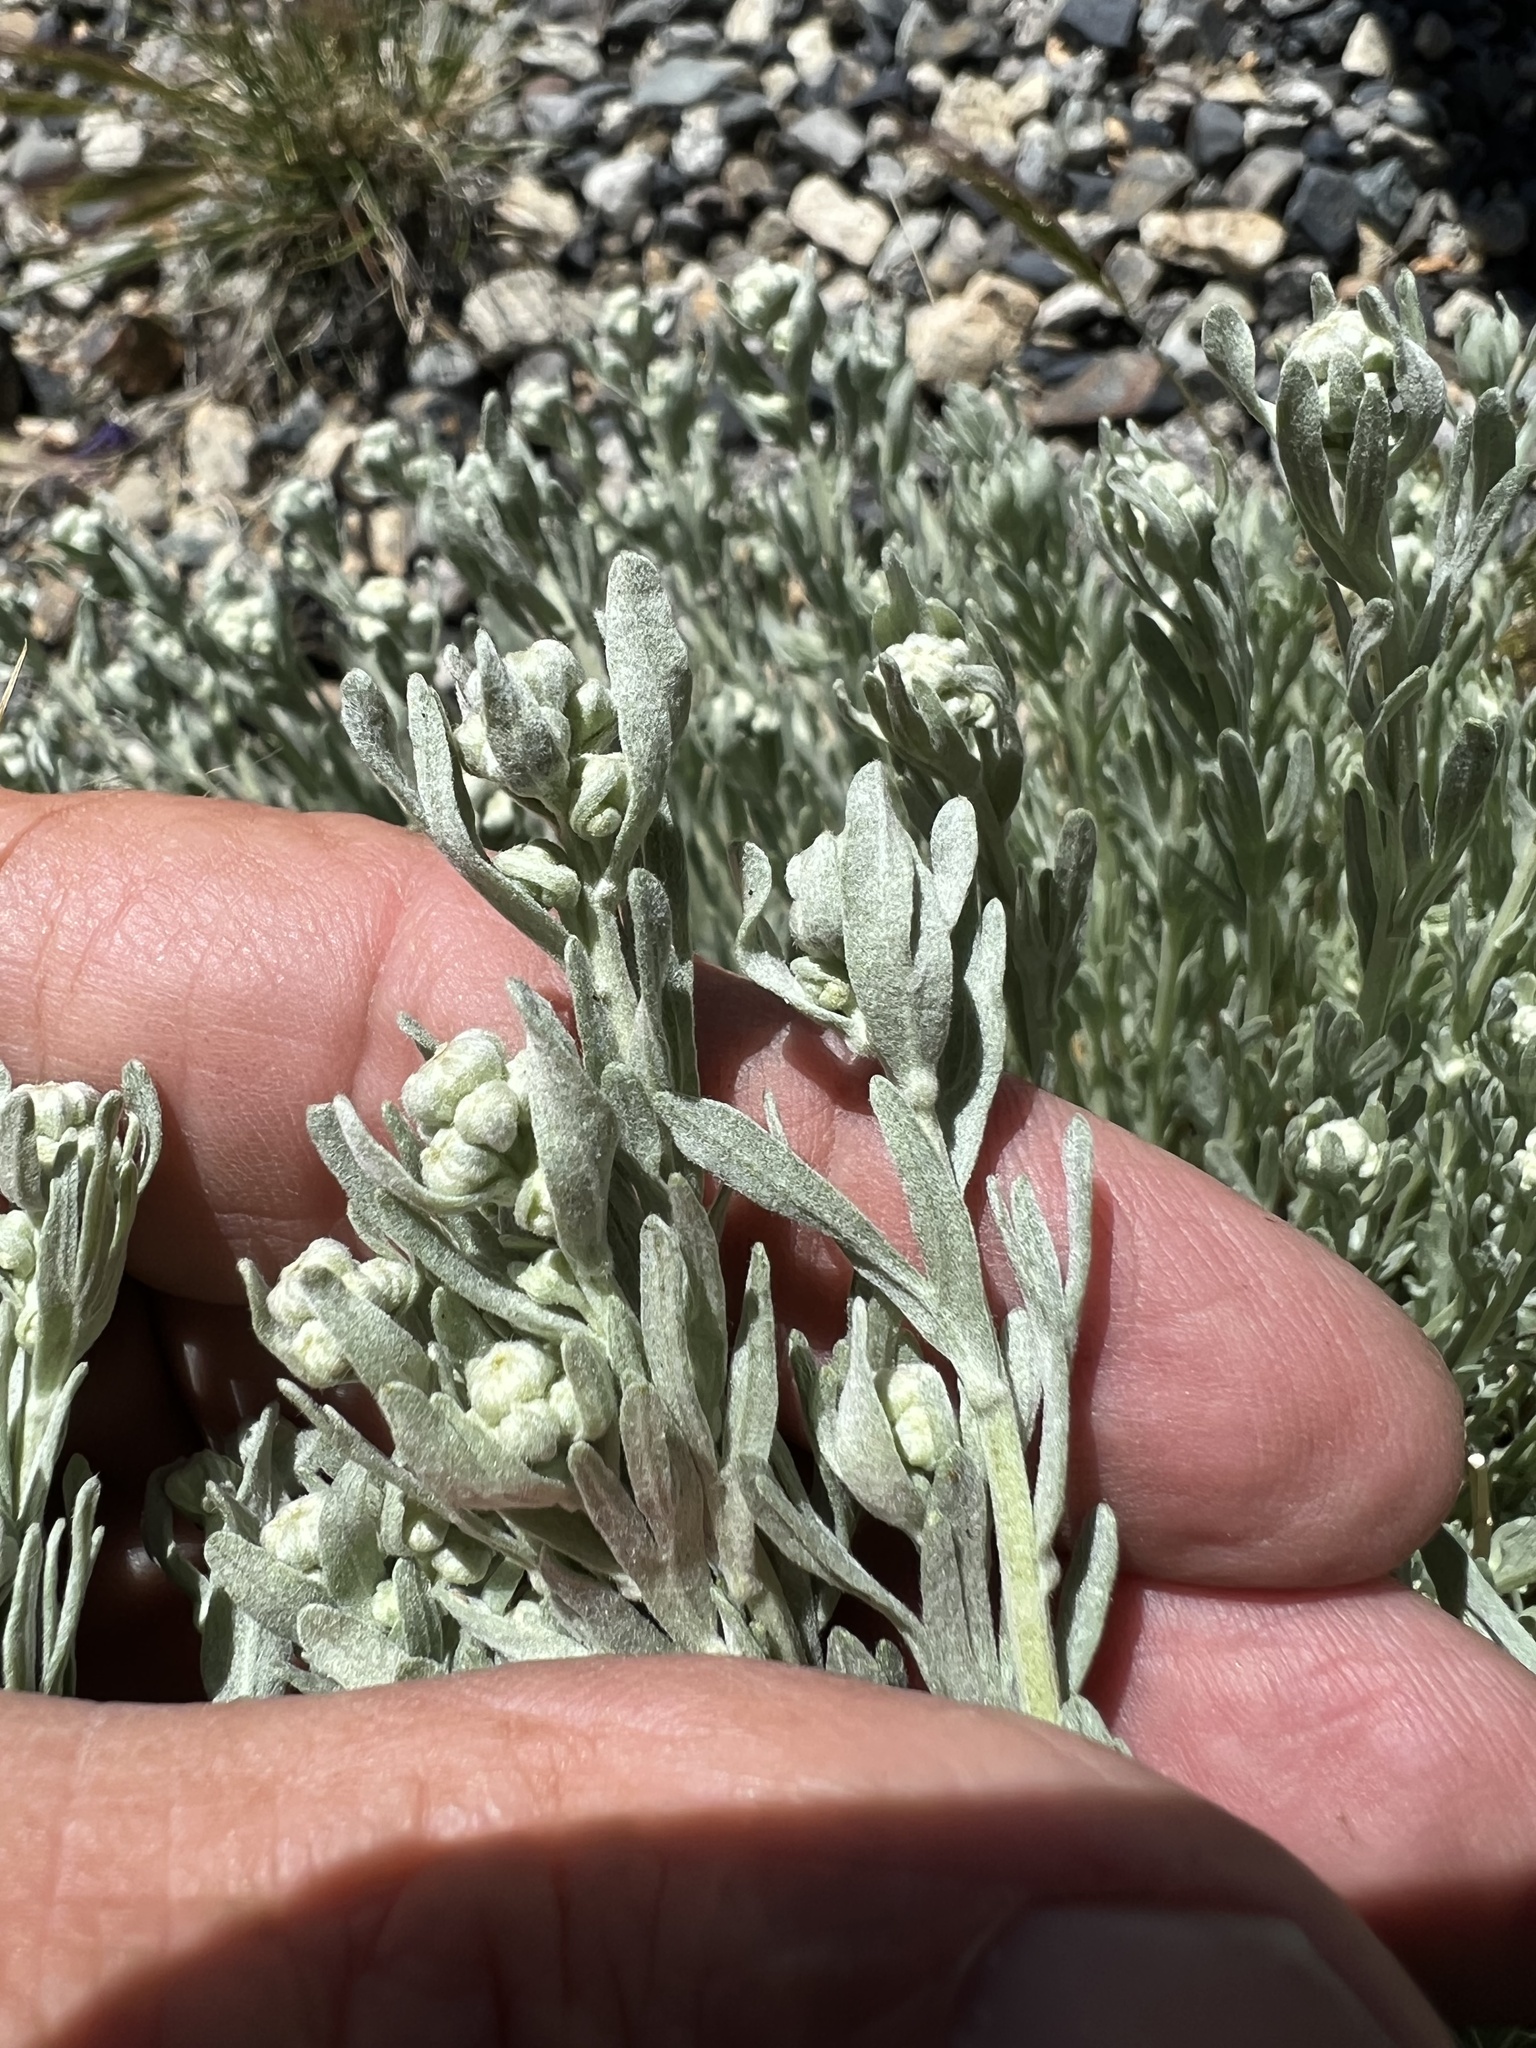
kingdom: Plantae
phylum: Tracheophyta
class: Magnoliopsida
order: Asterales
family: Asteraceae
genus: Artemisia
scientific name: Artemisia albicans
